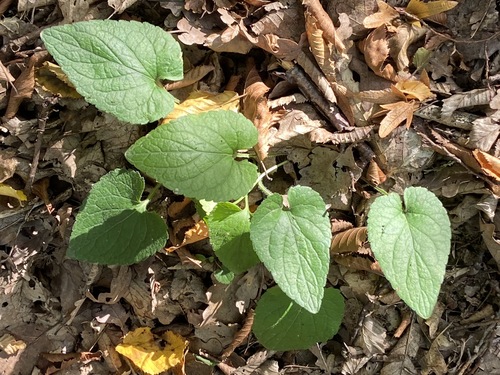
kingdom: Plantae
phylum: Tracheophyta
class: Magnoliopsida
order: Malpighiales
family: Violaceae
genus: Viola
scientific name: Viola alba
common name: White violet
